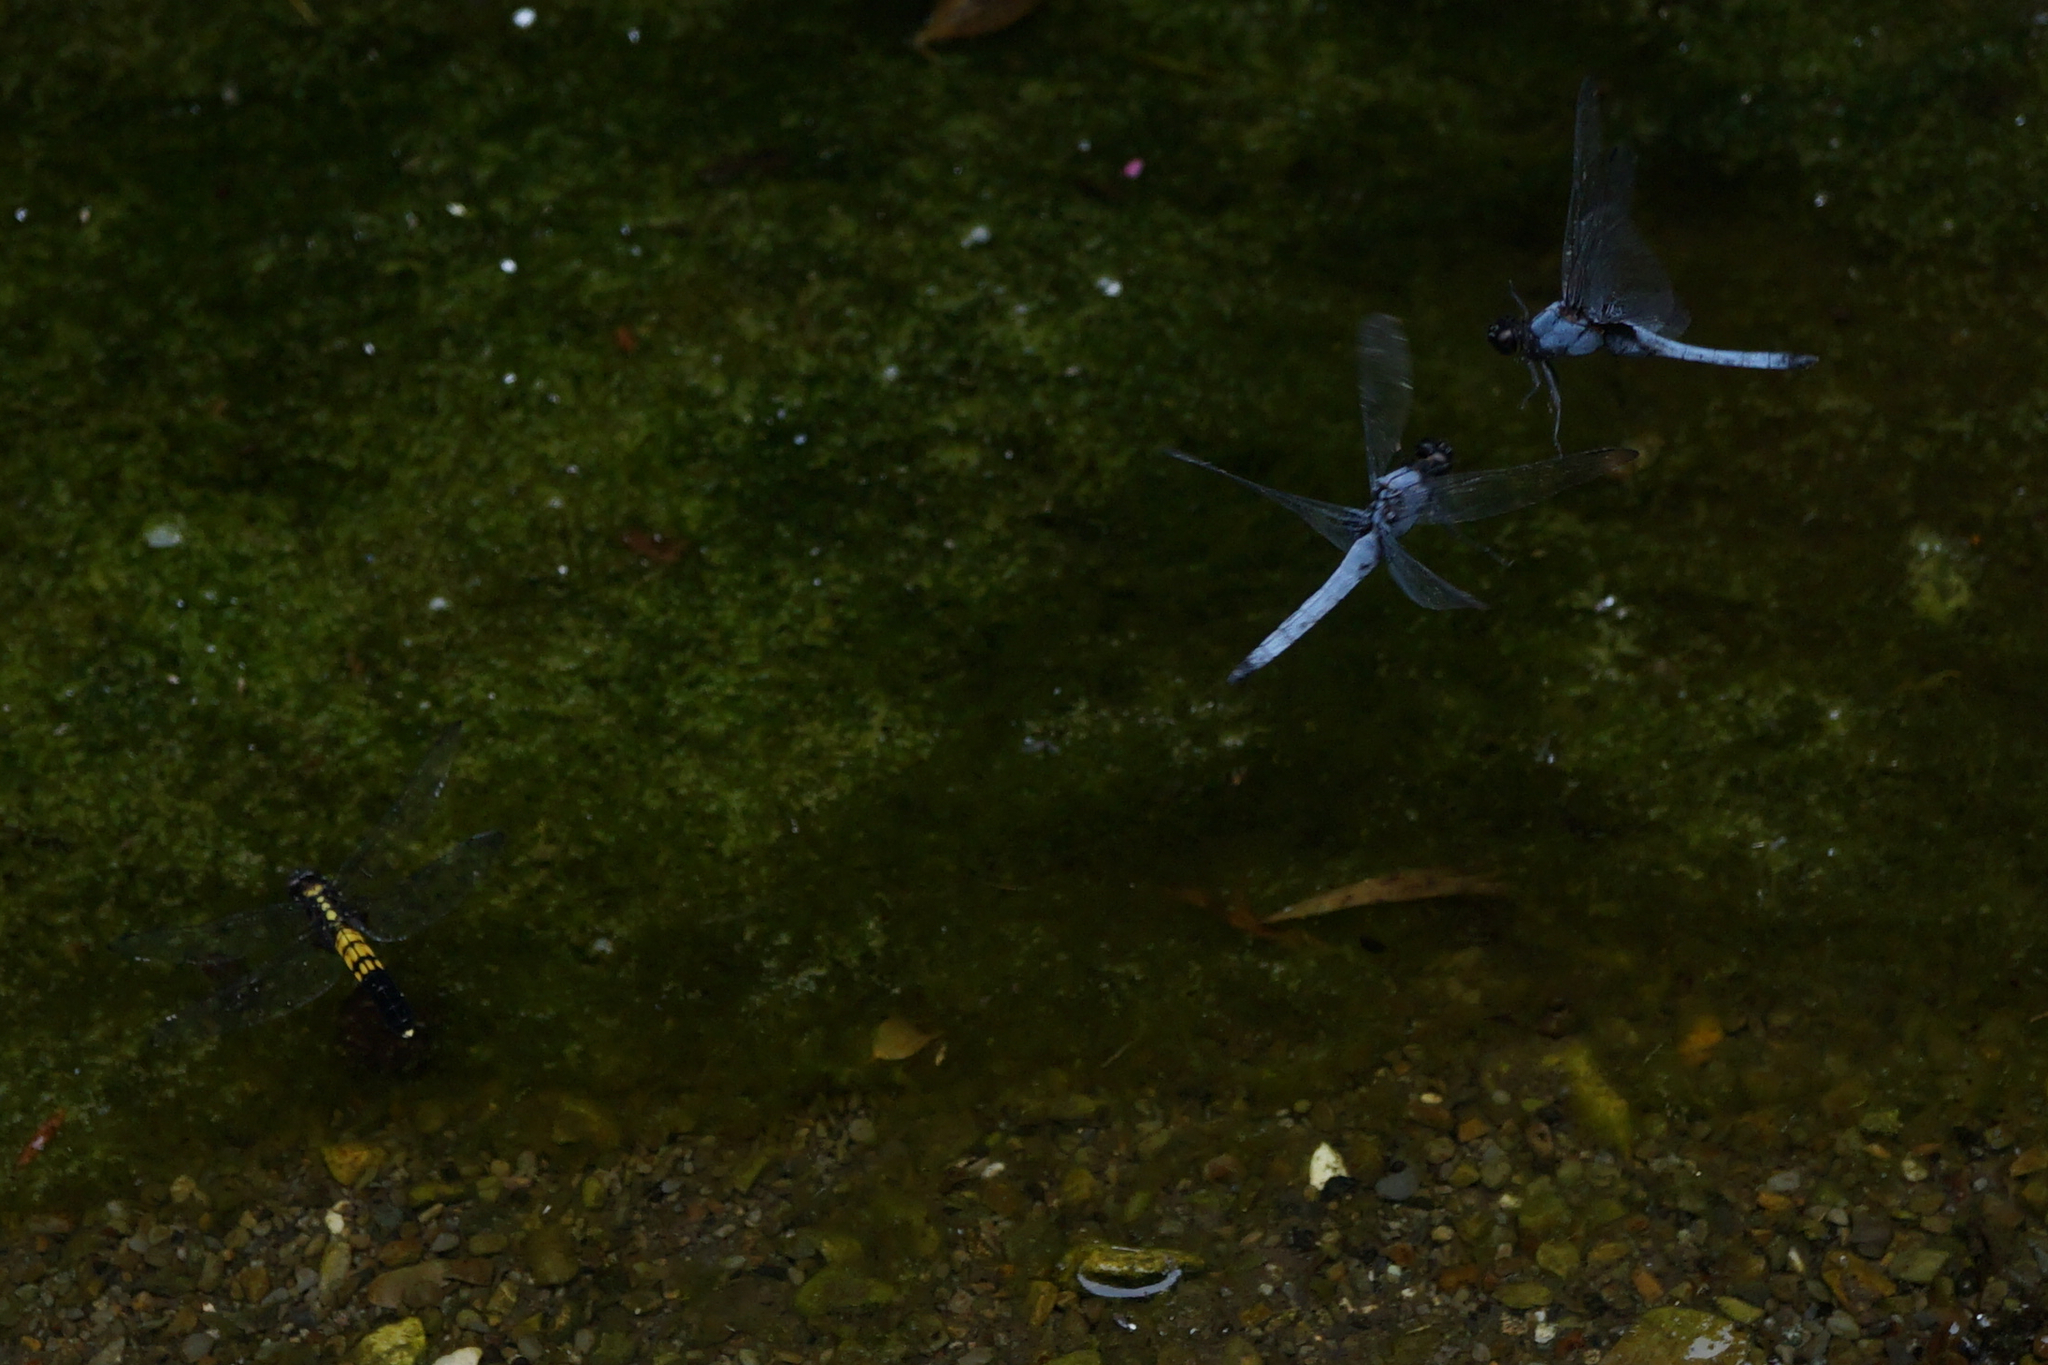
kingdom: Animalia
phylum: Arthropoda
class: Insecta
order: Odonata
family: Libellulidae
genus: Orthetrum
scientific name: Orthetrum melania
